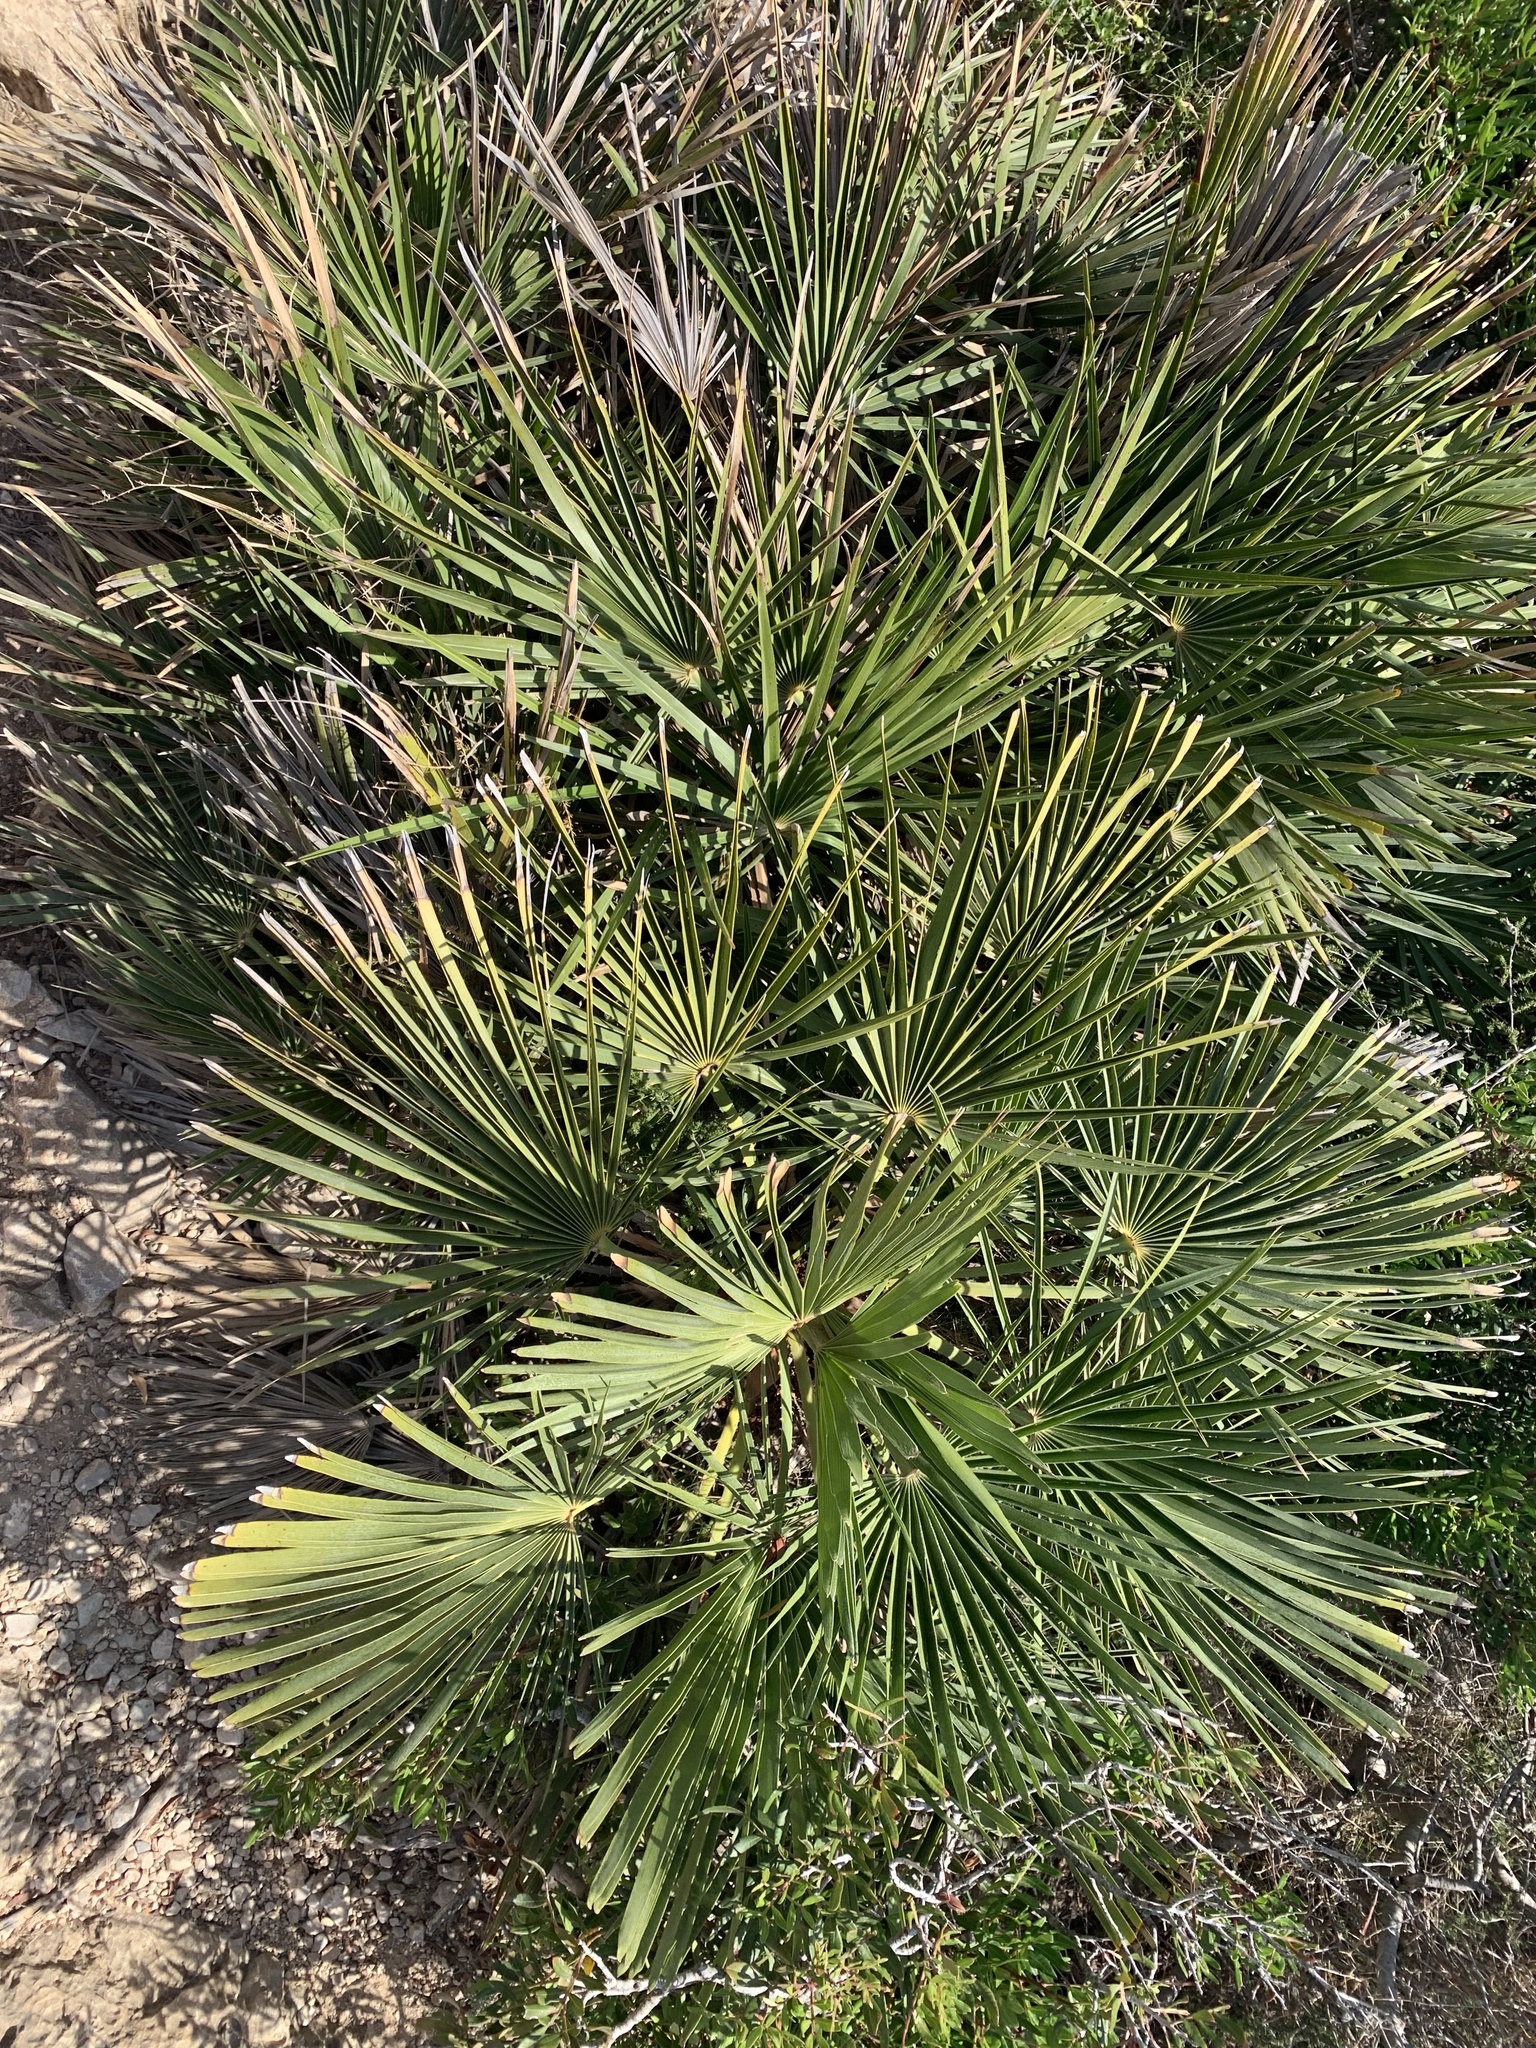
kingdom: Plantae
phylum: Tracheophyta
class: Liliopsida
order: Arecales
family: Arecaceae
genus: Chamaerops
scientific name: Chamaerops humilis
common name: Dwarf fan palm
